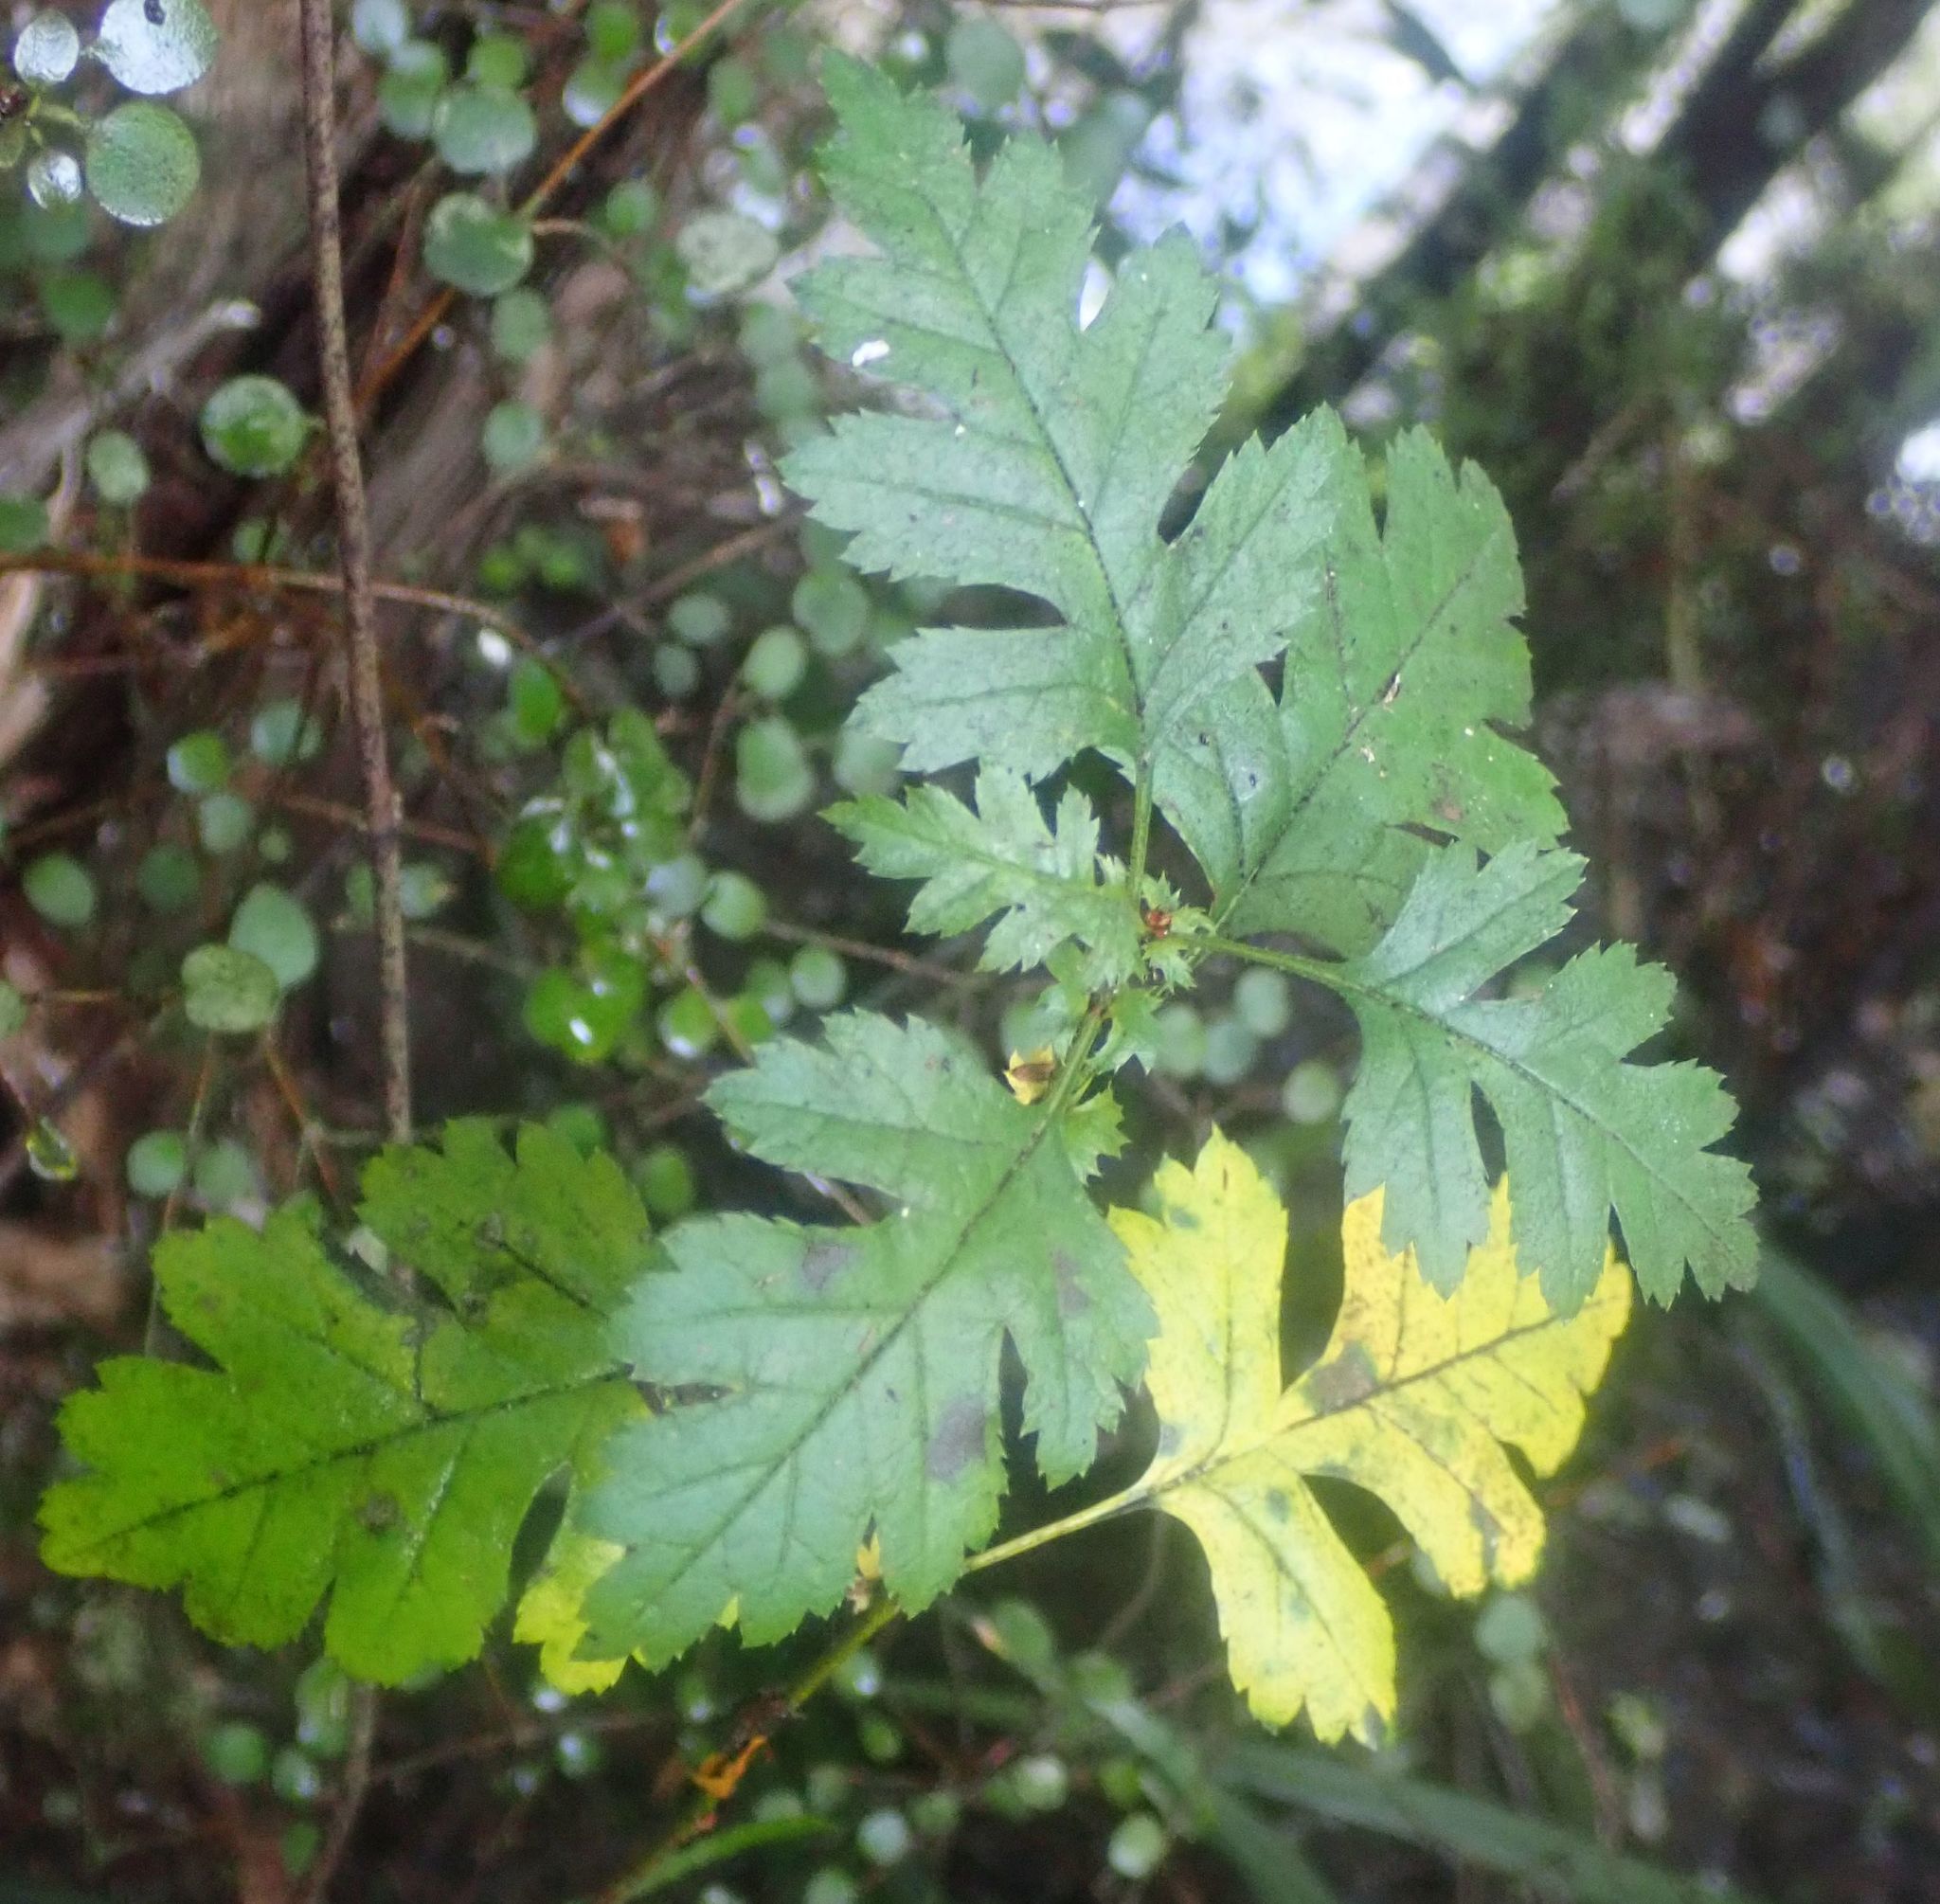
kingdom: Plantae
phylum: Tracheophyta
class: Magnoliopsida
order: Rosales
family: Rosaceae
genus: Crataegus
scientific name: Crataegus monogyna
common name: Hawthorn
